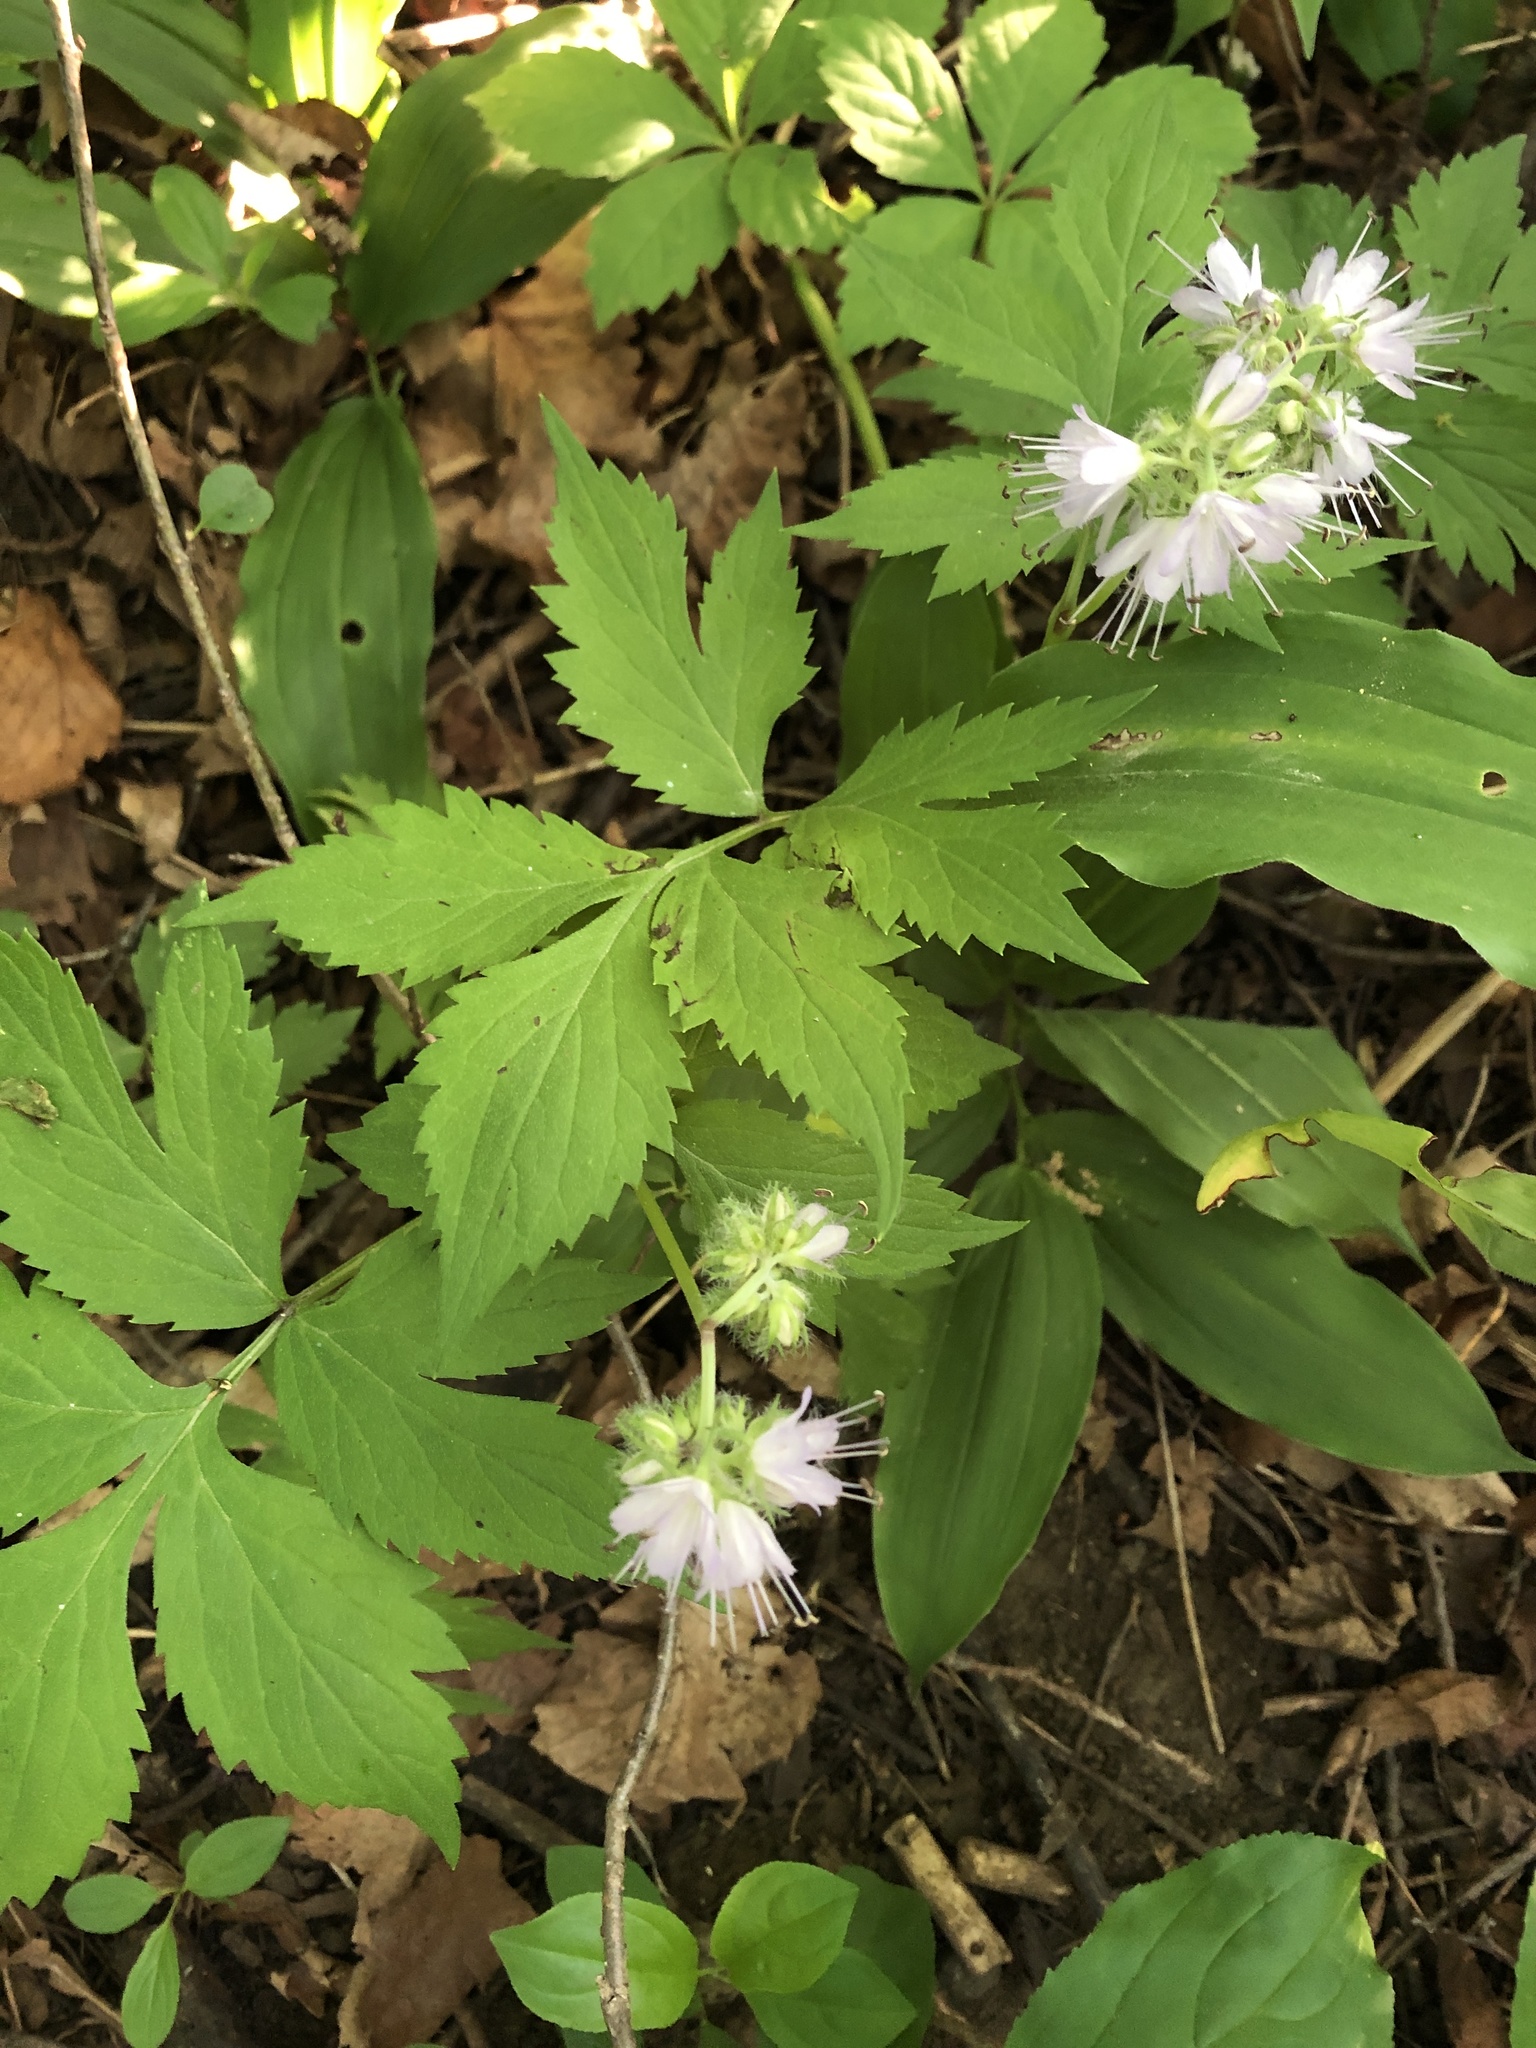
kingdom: Plantae
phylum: Tracheophyta
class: Magnoliopsida
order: Boraginales
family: Hydrophyllaceae
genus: Hydrophyllum
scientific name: Hydrophyllum virginianum
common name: Virginia waterleaf
